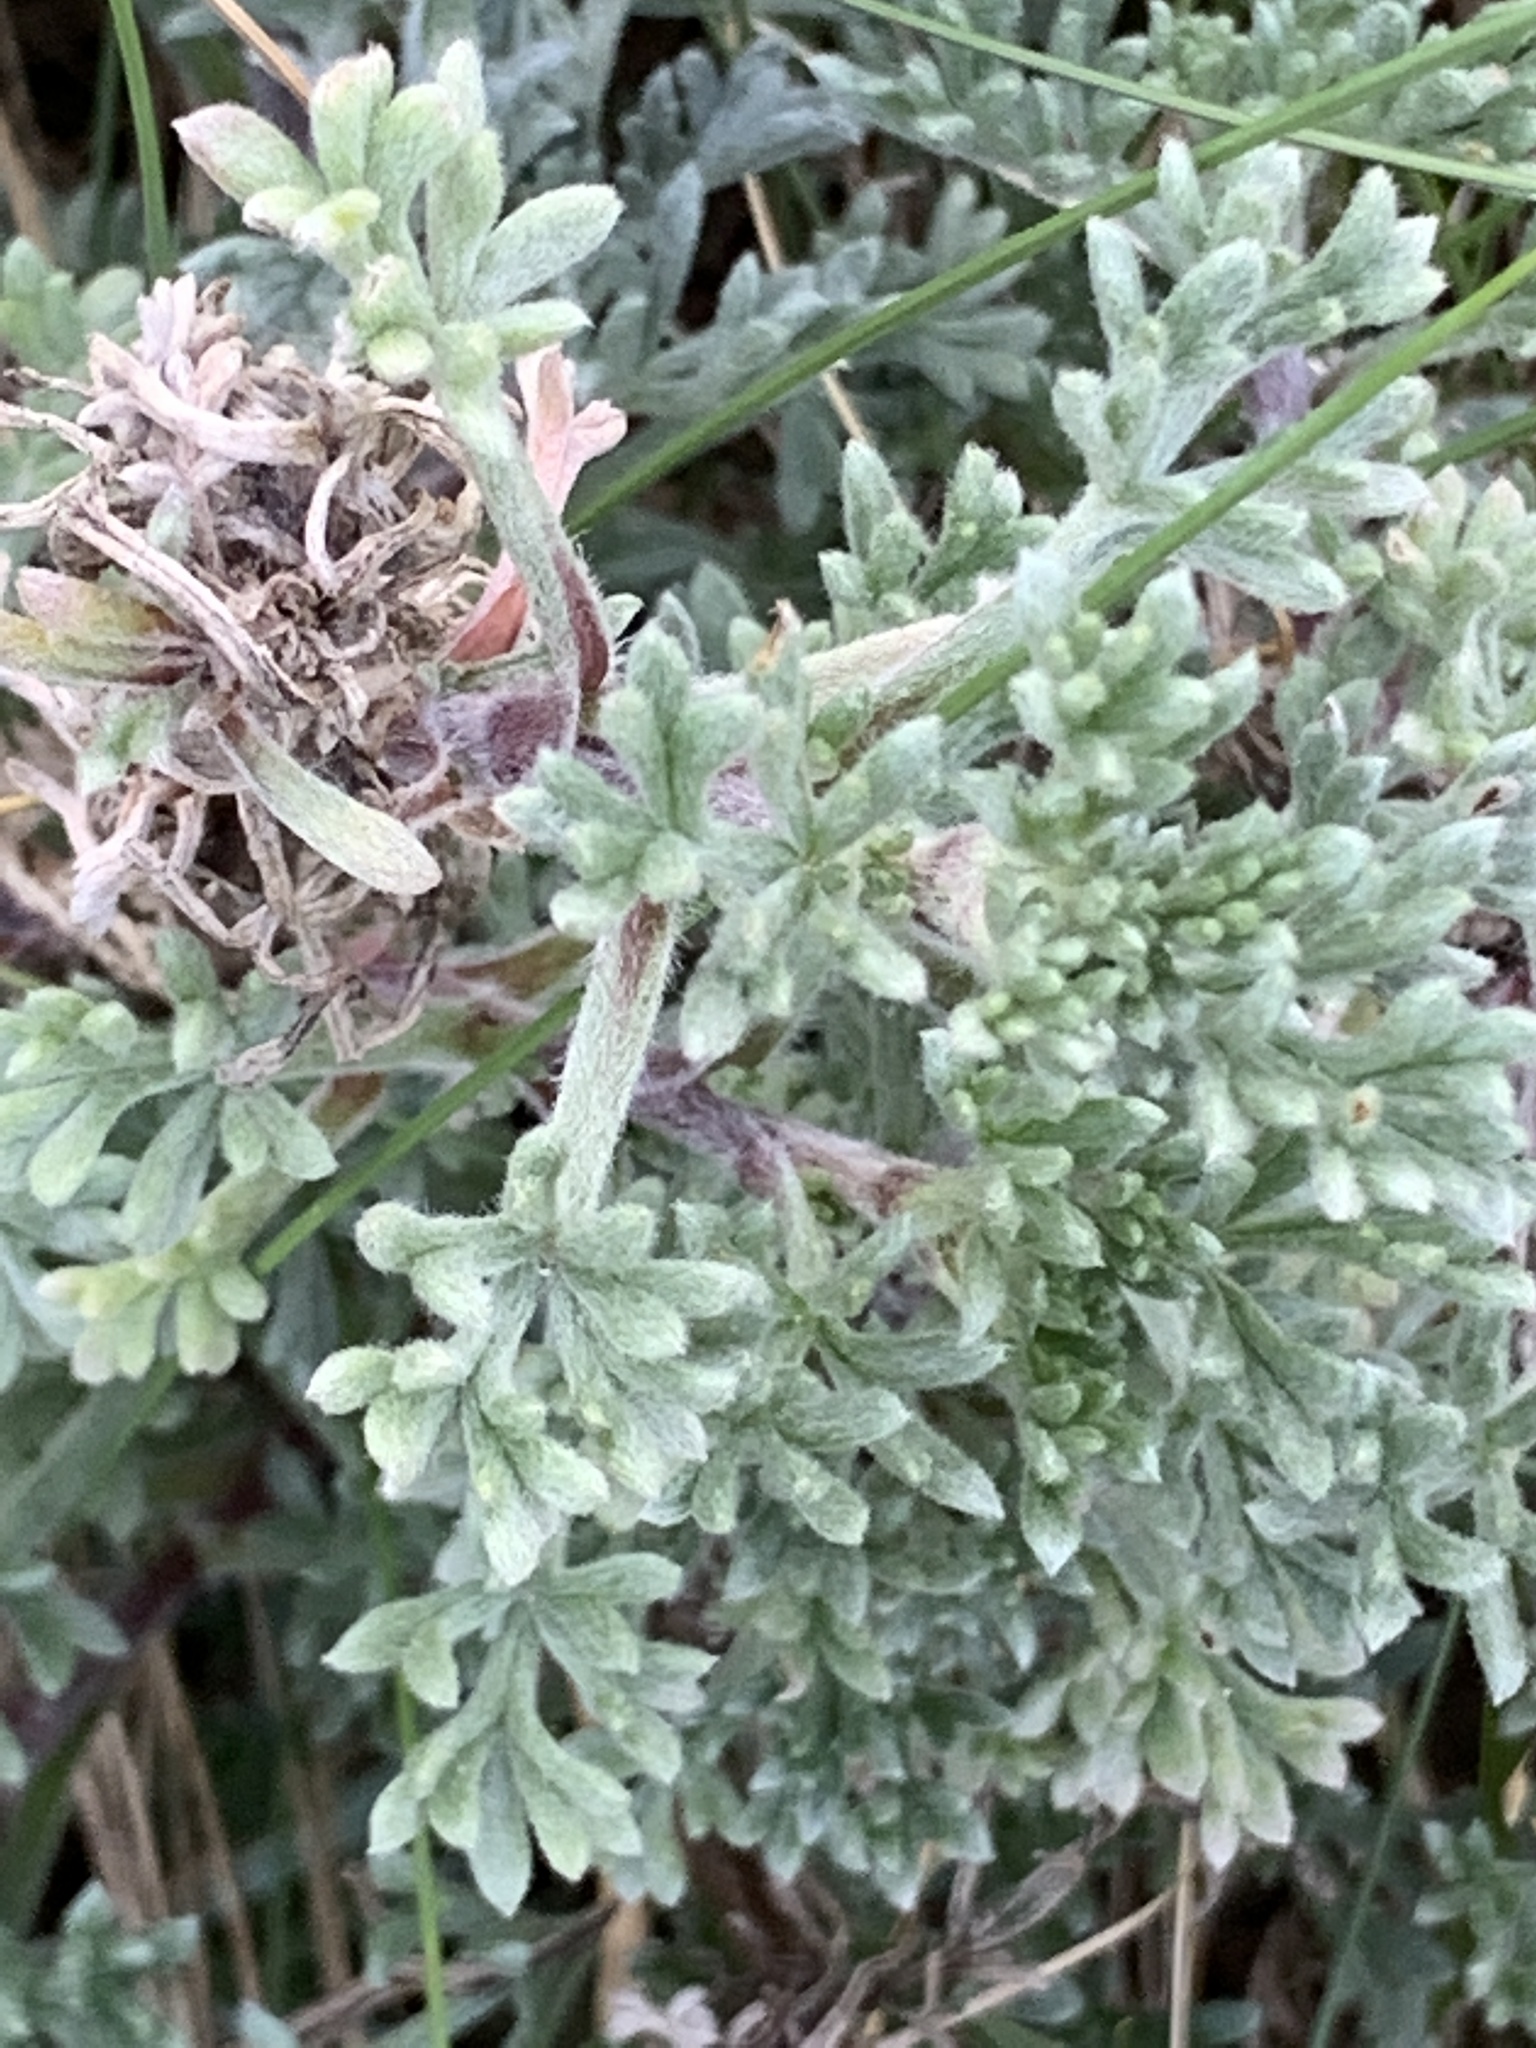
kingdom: Plantae
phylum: Tracheophyta
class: Magnoliopsida
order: Asterales
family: Asteraceae
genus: Artemisia
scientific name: Artemisia crithmifolia
